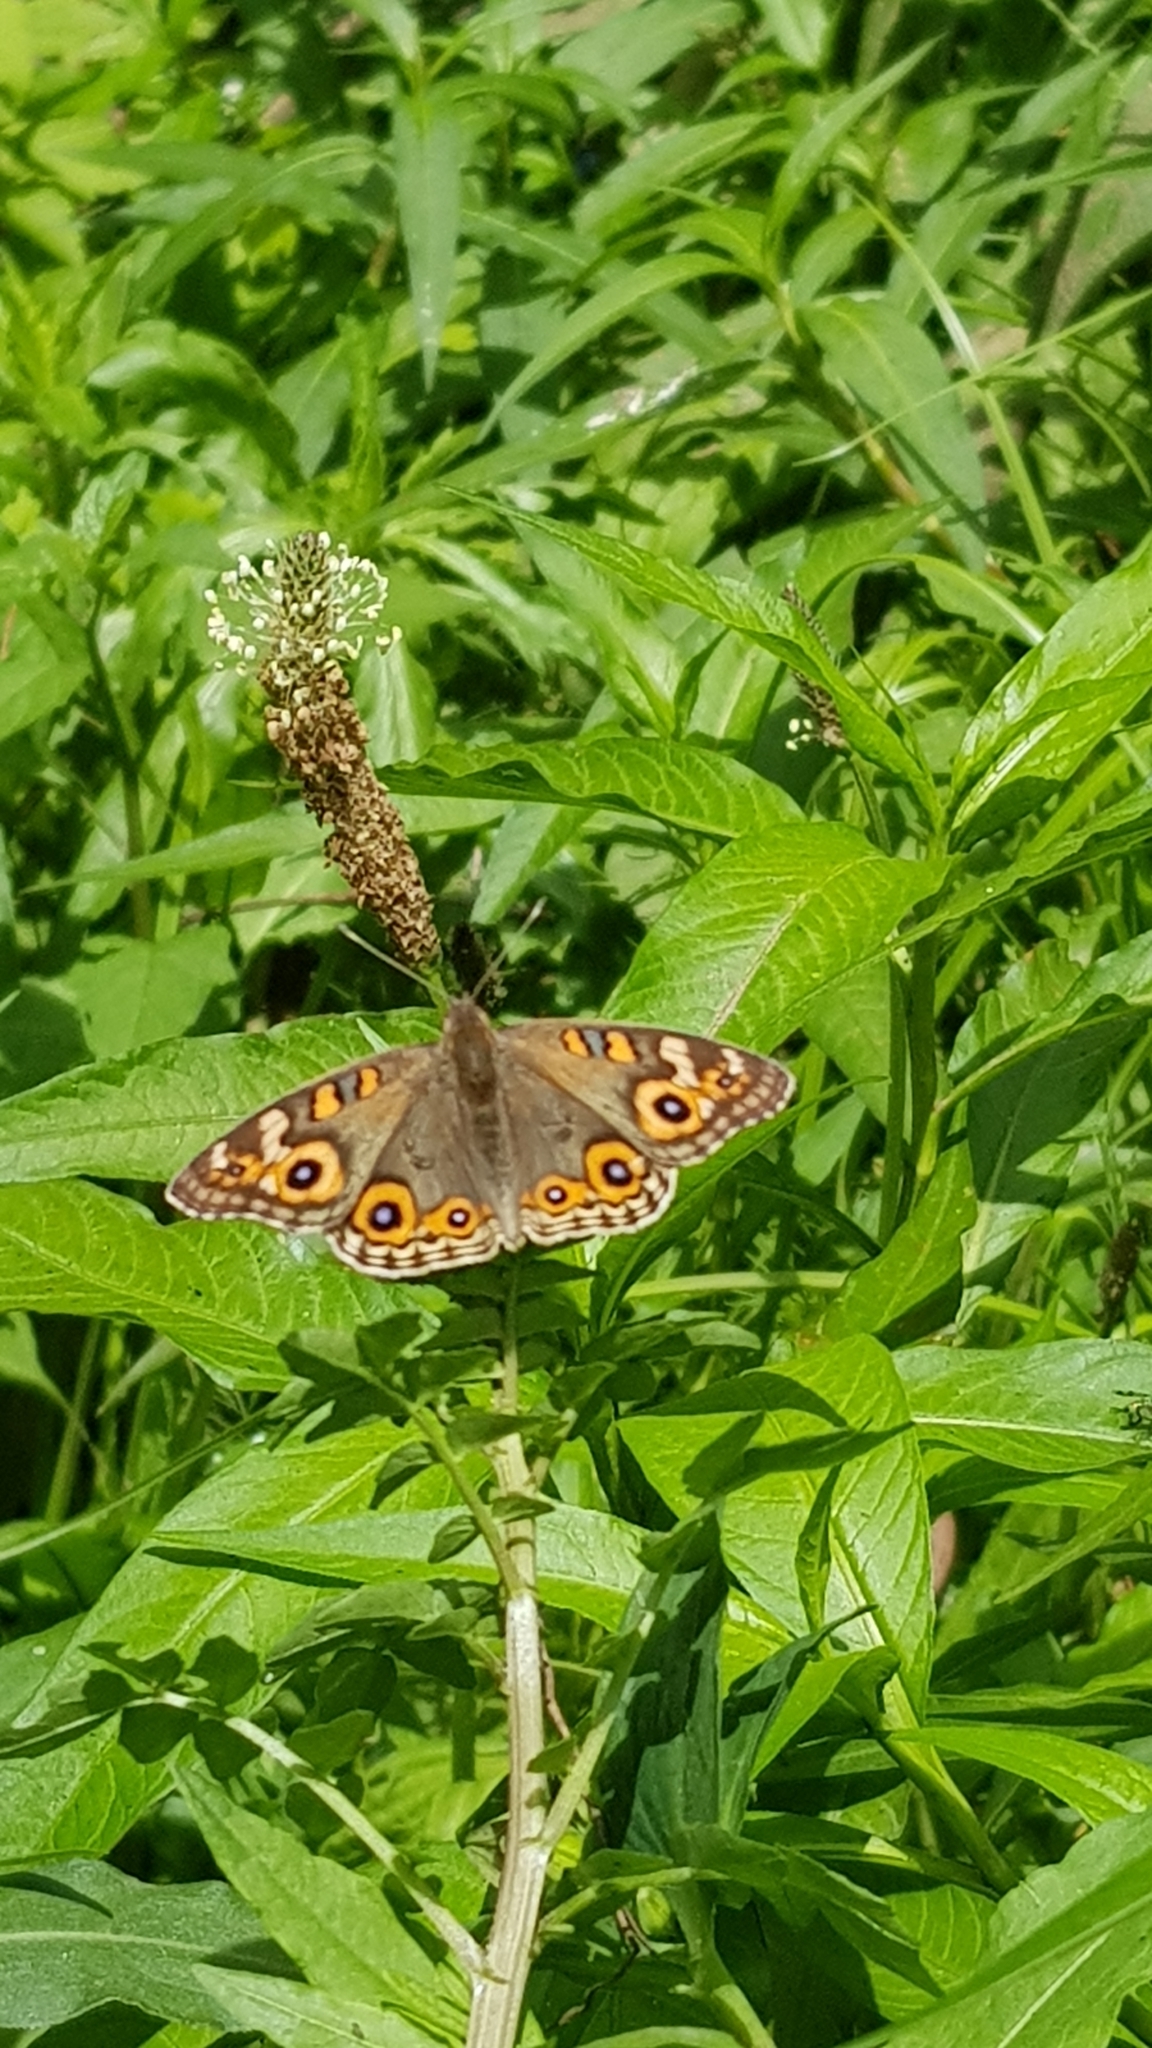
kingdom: Animalia
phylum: Arthropoda
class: Insecta
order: Lepidoptera
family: Nymphalidae
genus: Junonia
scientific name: Junonia villida
